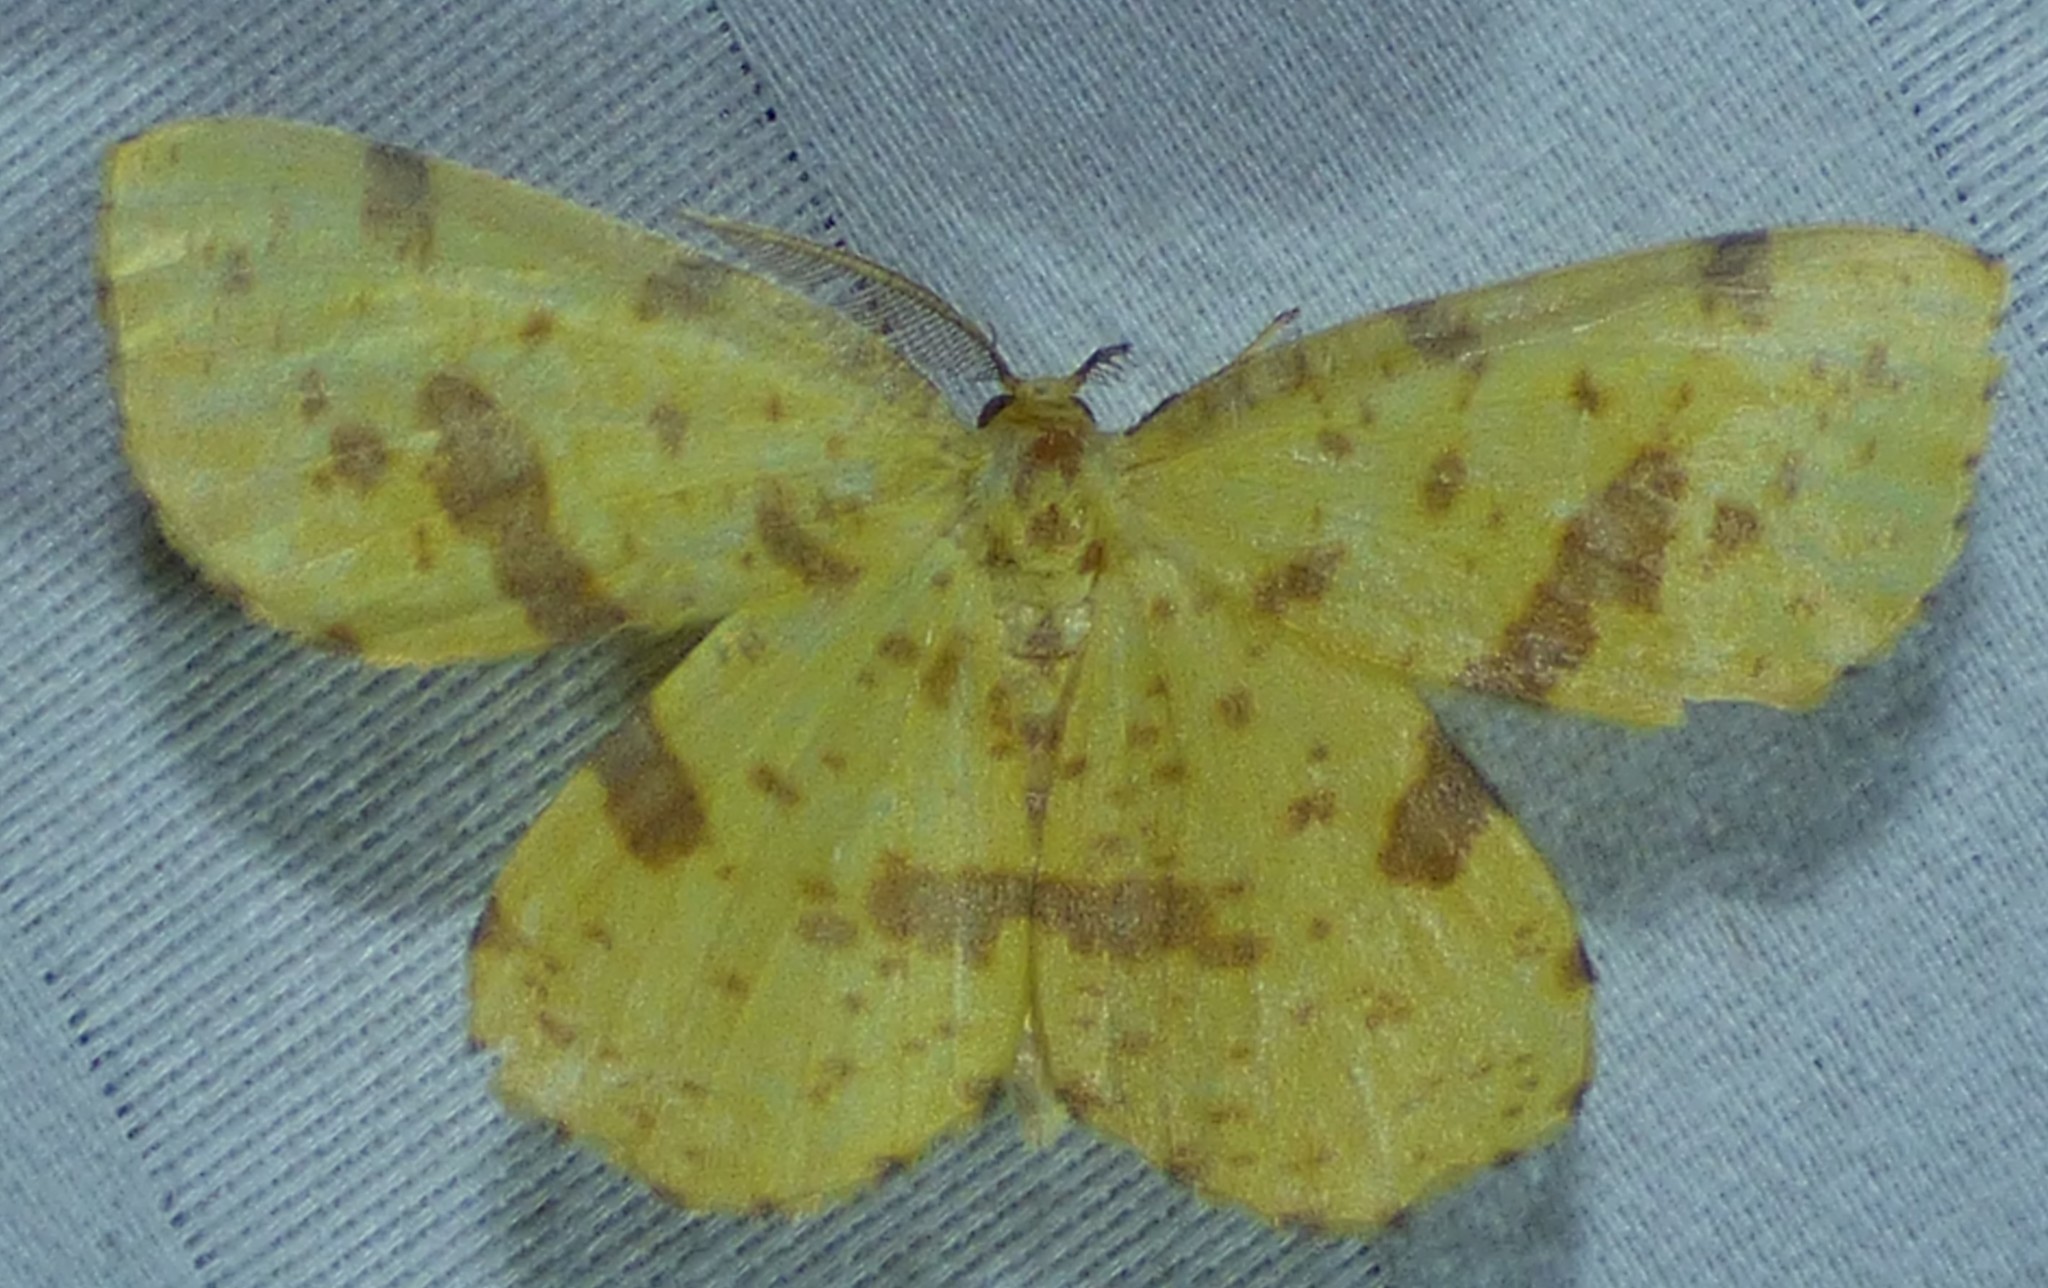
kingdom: Animalia
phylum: Arthropoda
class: Insecta
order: Lepidoptera
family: Geometridae
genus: Xanthotype
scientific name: Xanthotype
